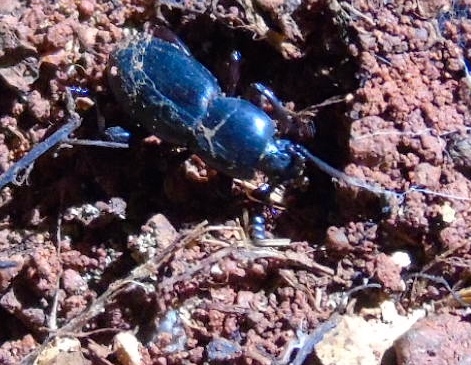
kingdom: Animalia
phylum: Arthropoda
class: Insecta
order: Coleoptera
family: Tenebrionidae
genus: Argoporis
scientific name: Argoporis
